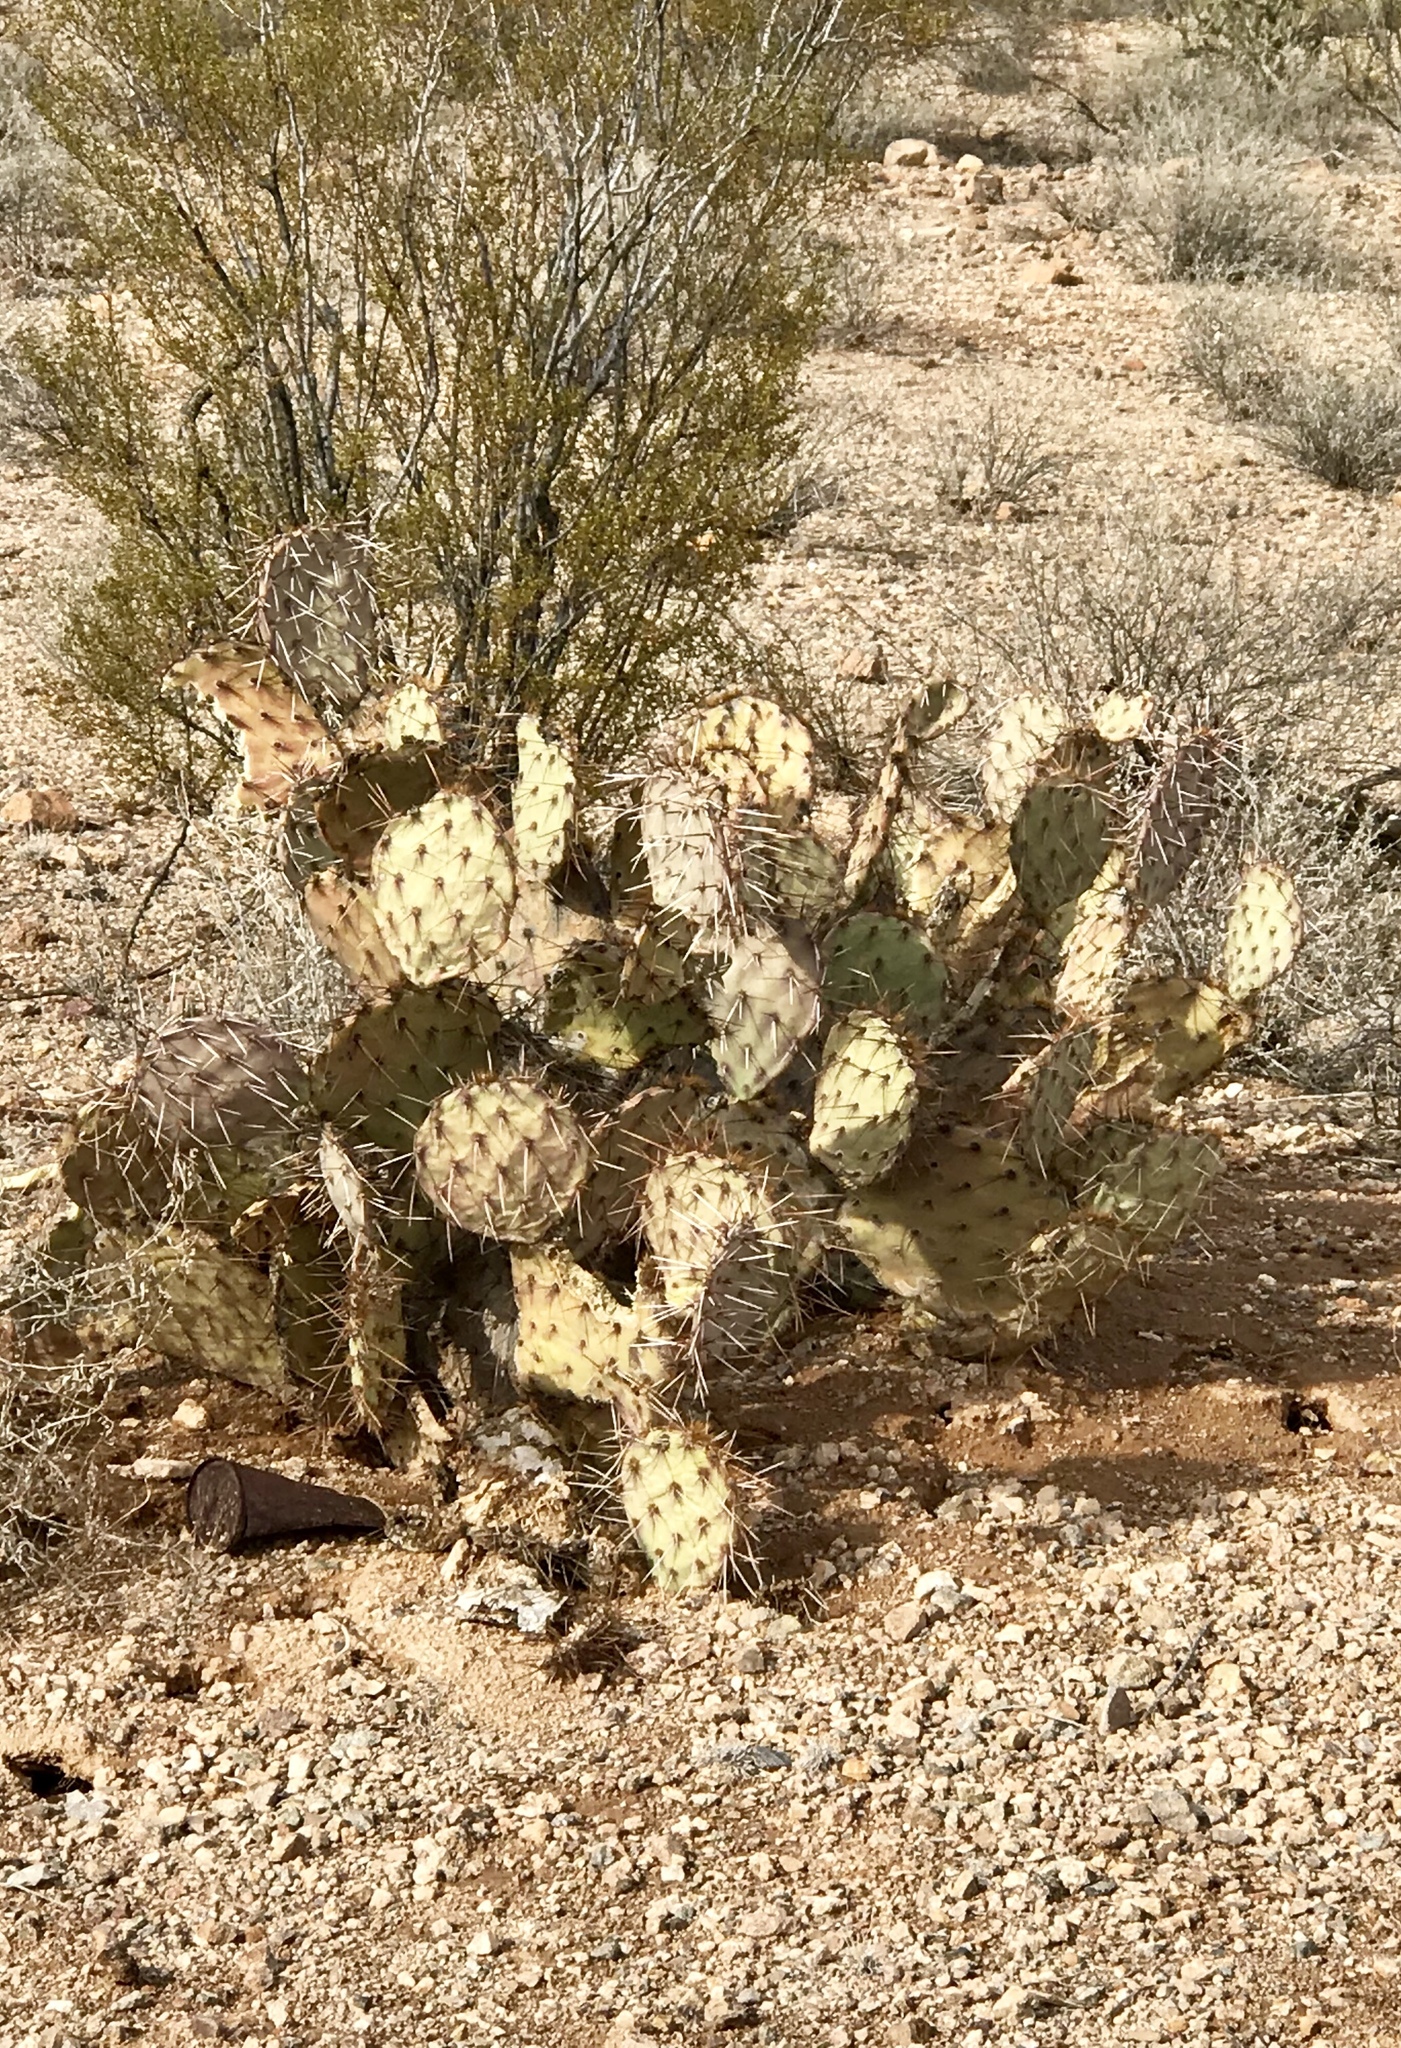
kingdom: Plantae
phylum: Tracheophyta
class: Magnoliopsida
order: Caryophyllales
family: Cactaceae
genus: Opuntia
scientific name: Opuntia phaeacantha
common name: New mexico prickly-pear
